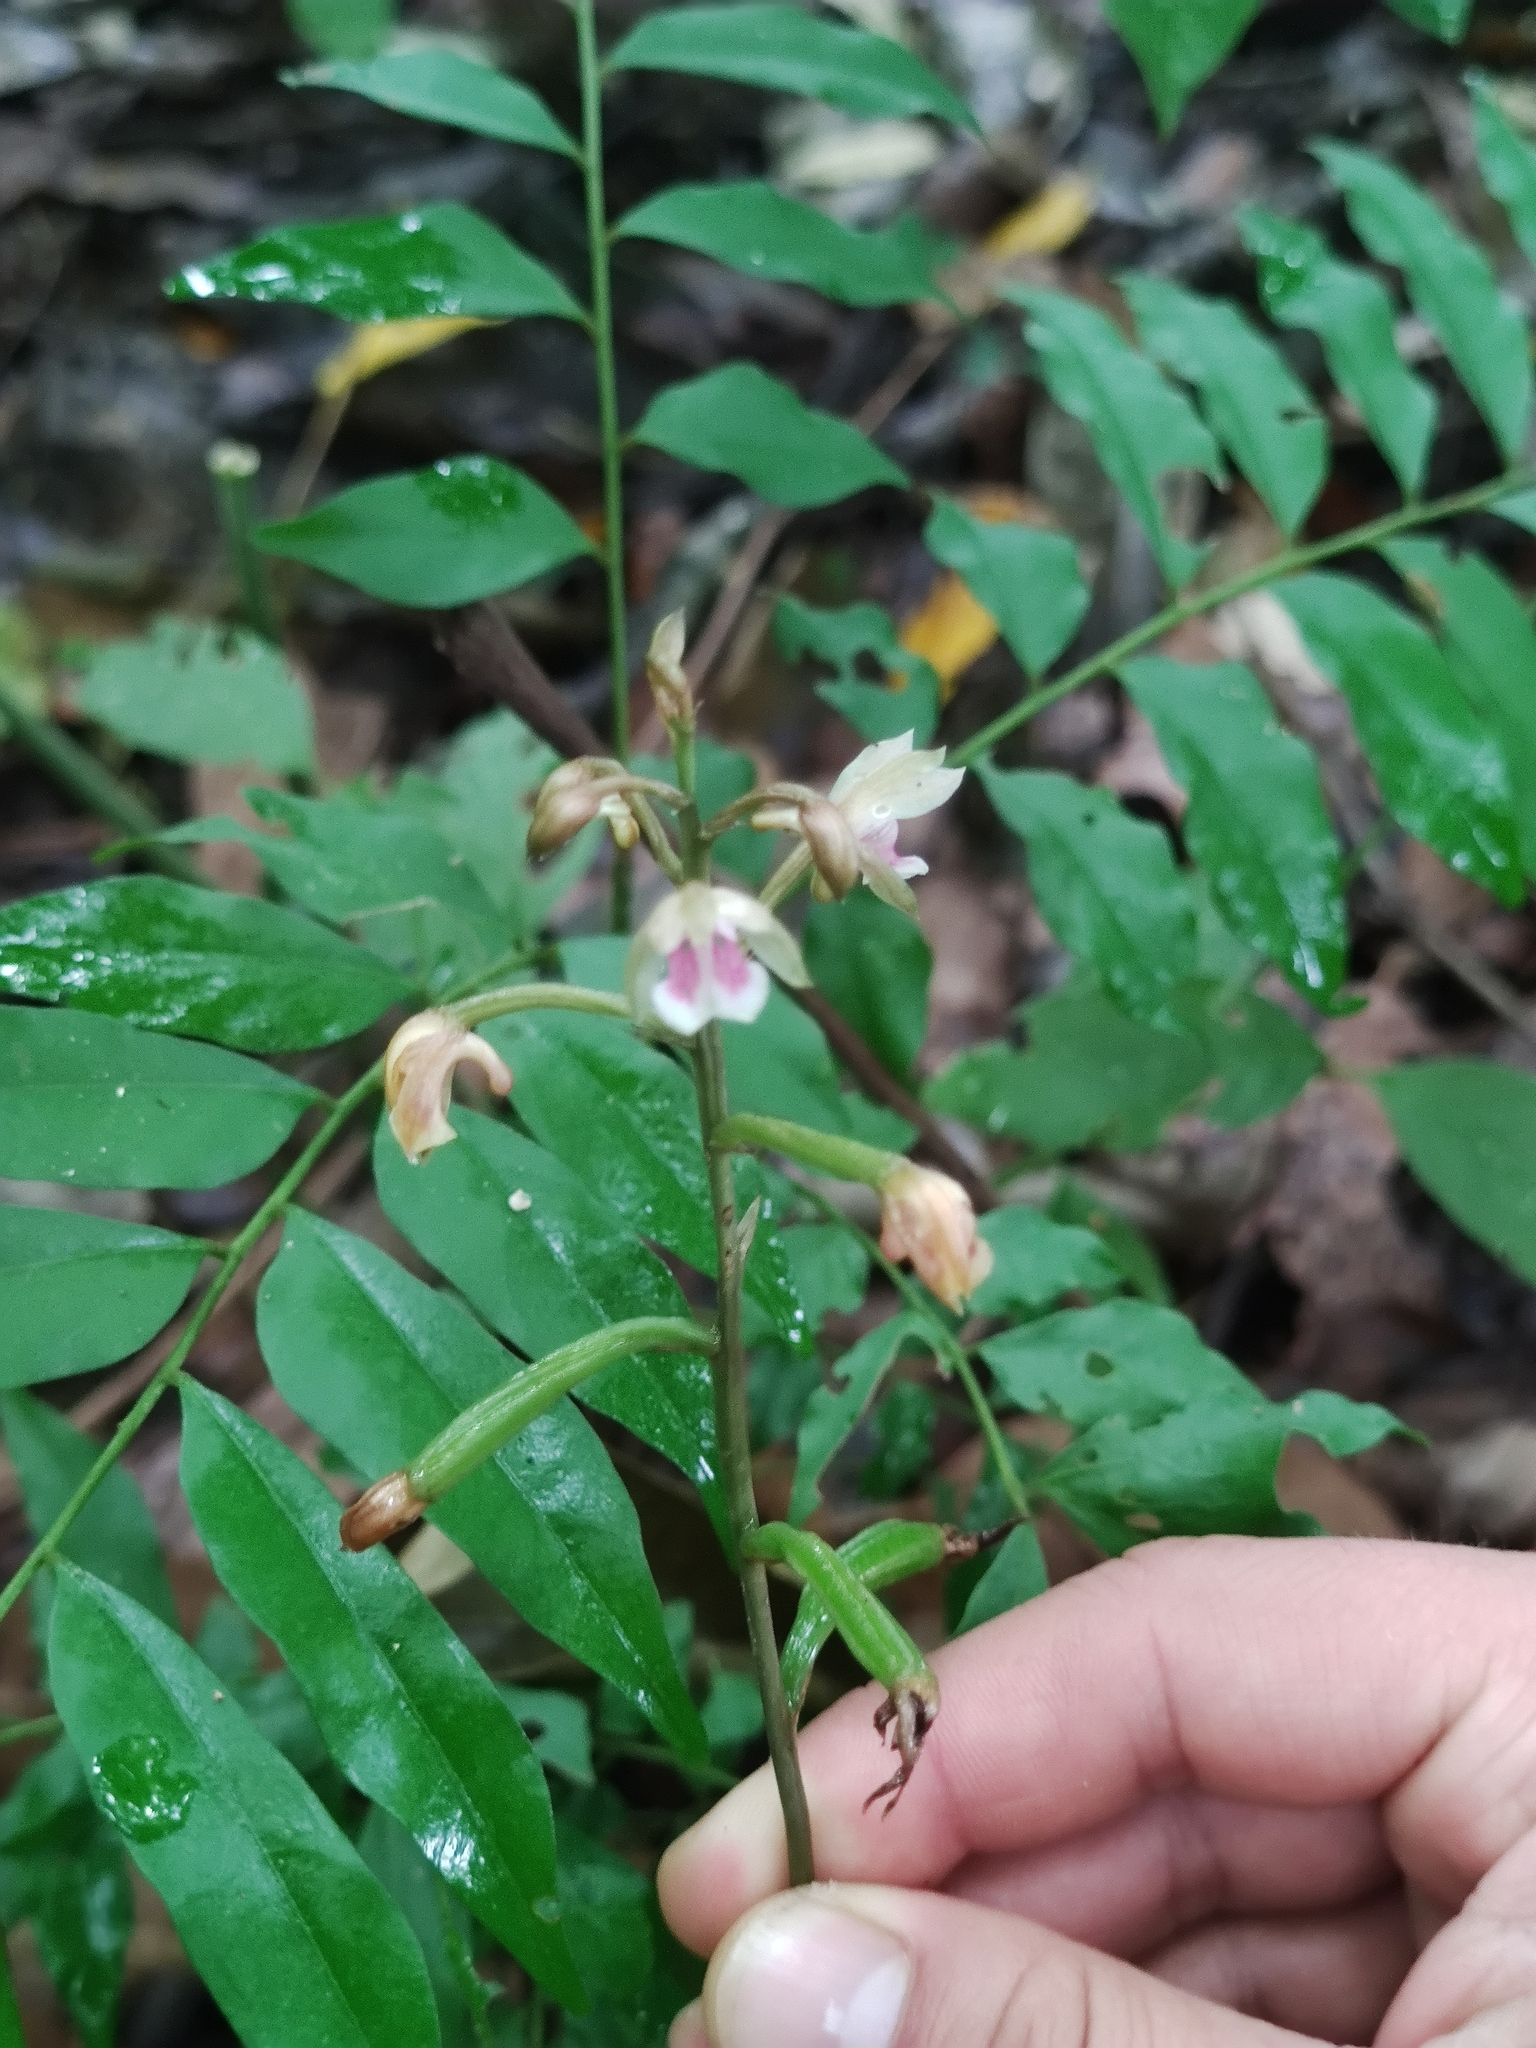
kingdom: Plantae
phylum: Tracheophyta
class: Liliopsida
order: Asparagales
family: Orchidaceae
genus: Eulophia
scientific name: Eulophia maculata
